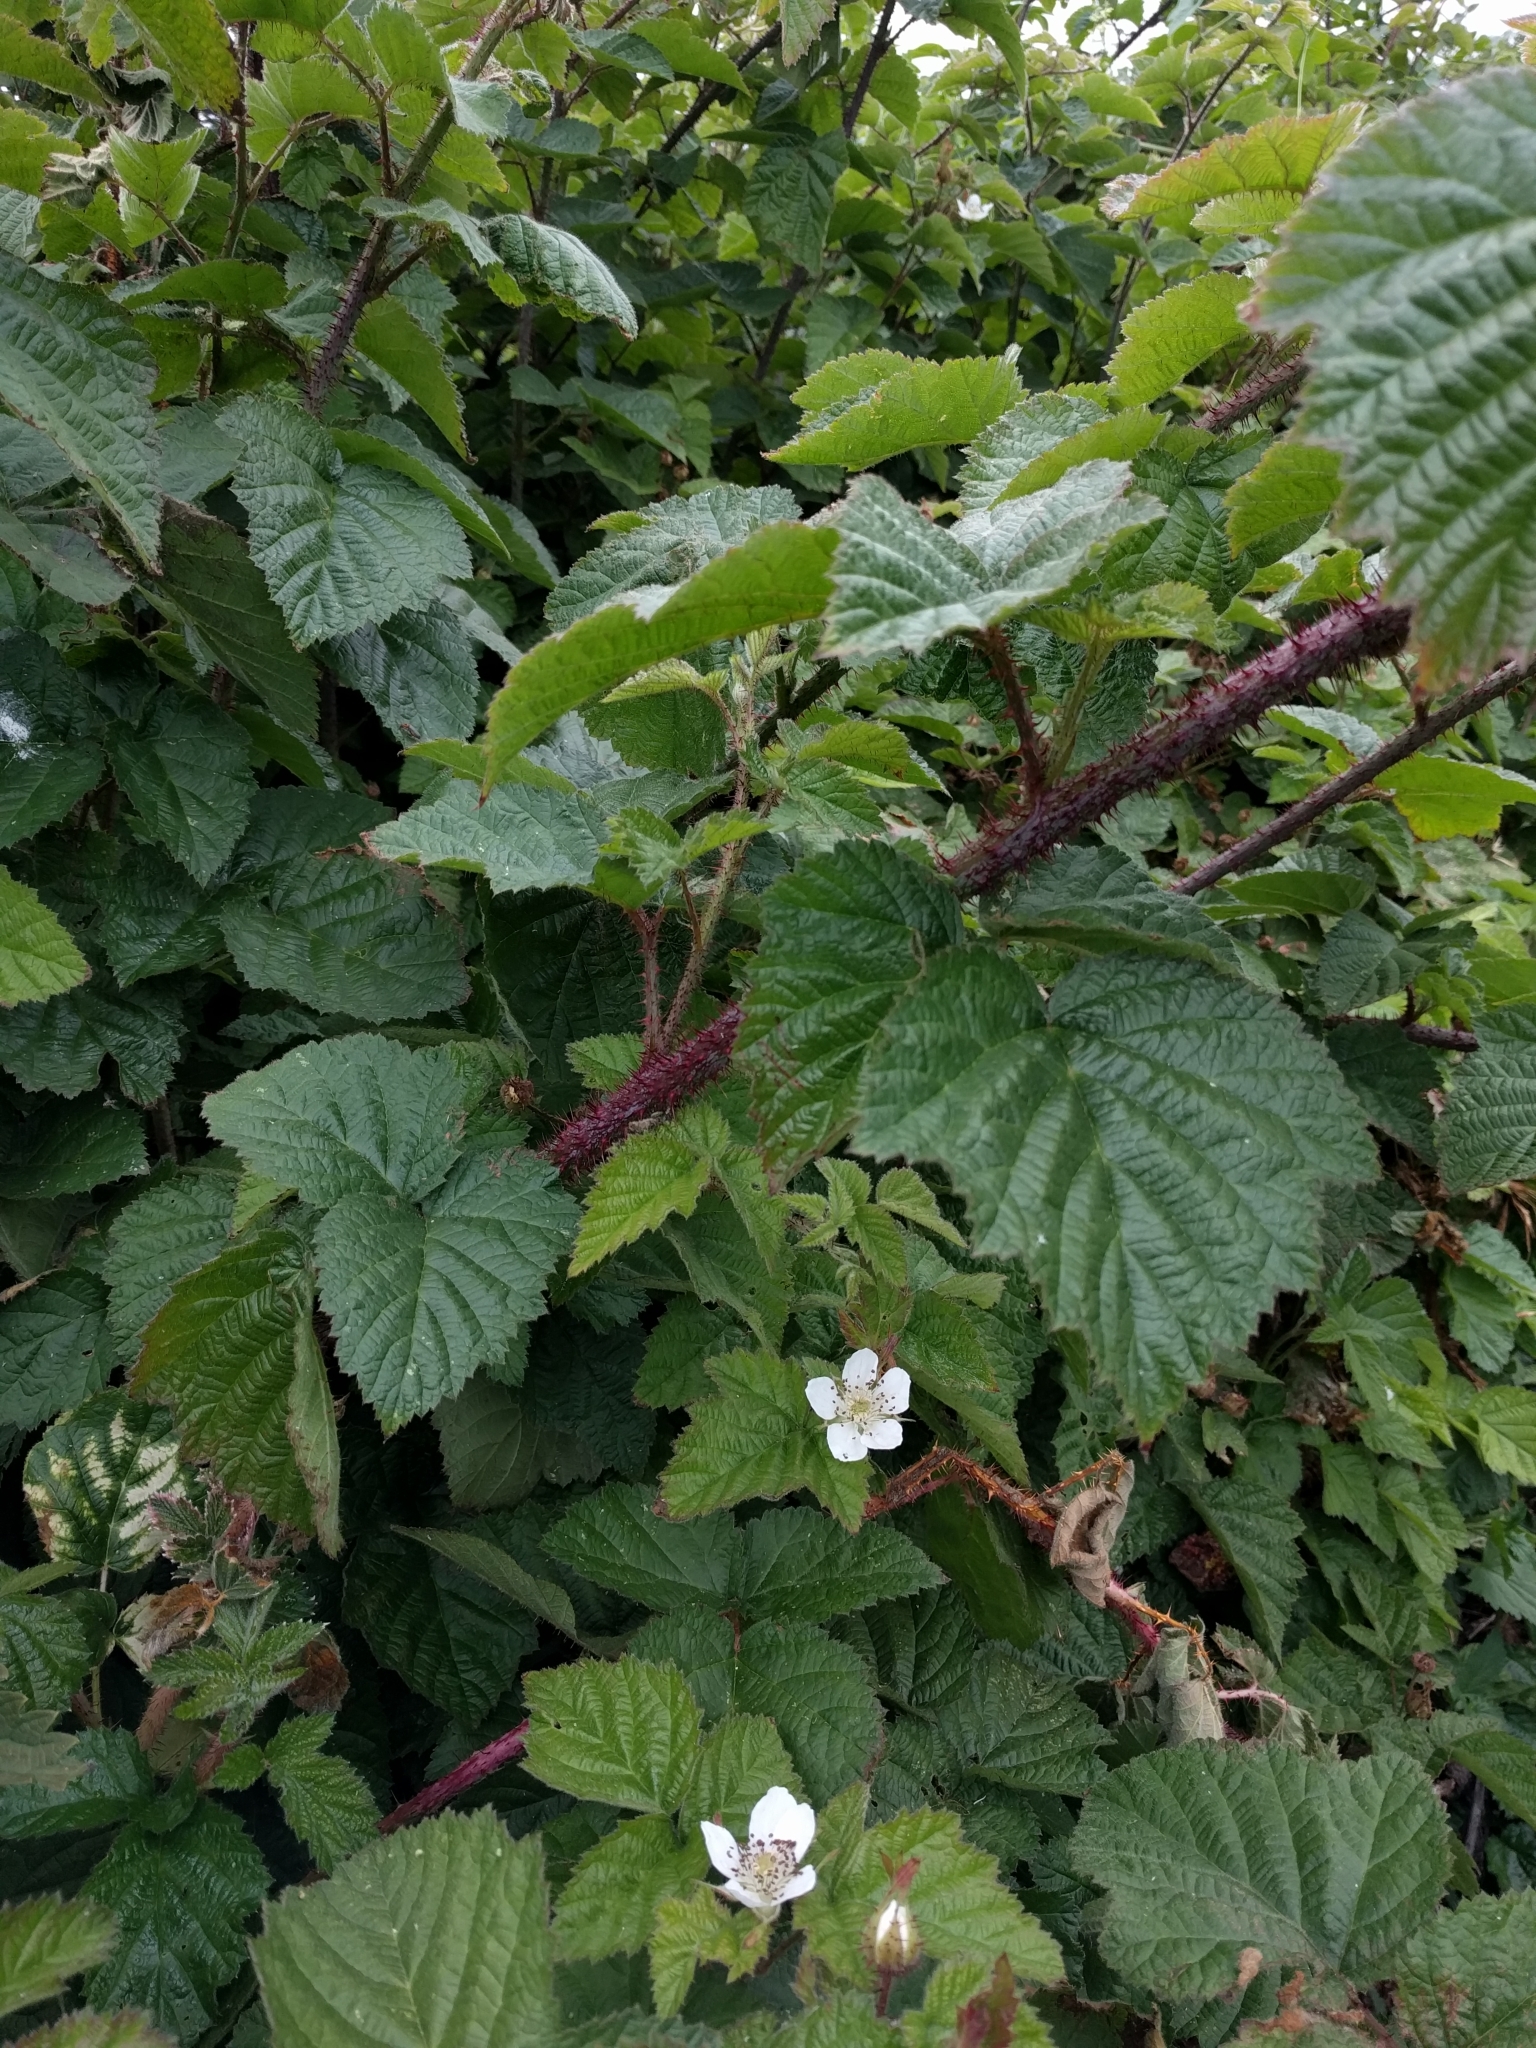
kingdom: Plantae
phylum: Tracheophyta
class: Magnoliopsida
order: Rosales
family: Rosaceae
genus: Rubus
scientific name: Rubus ursinus
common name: Pacific blackberry
